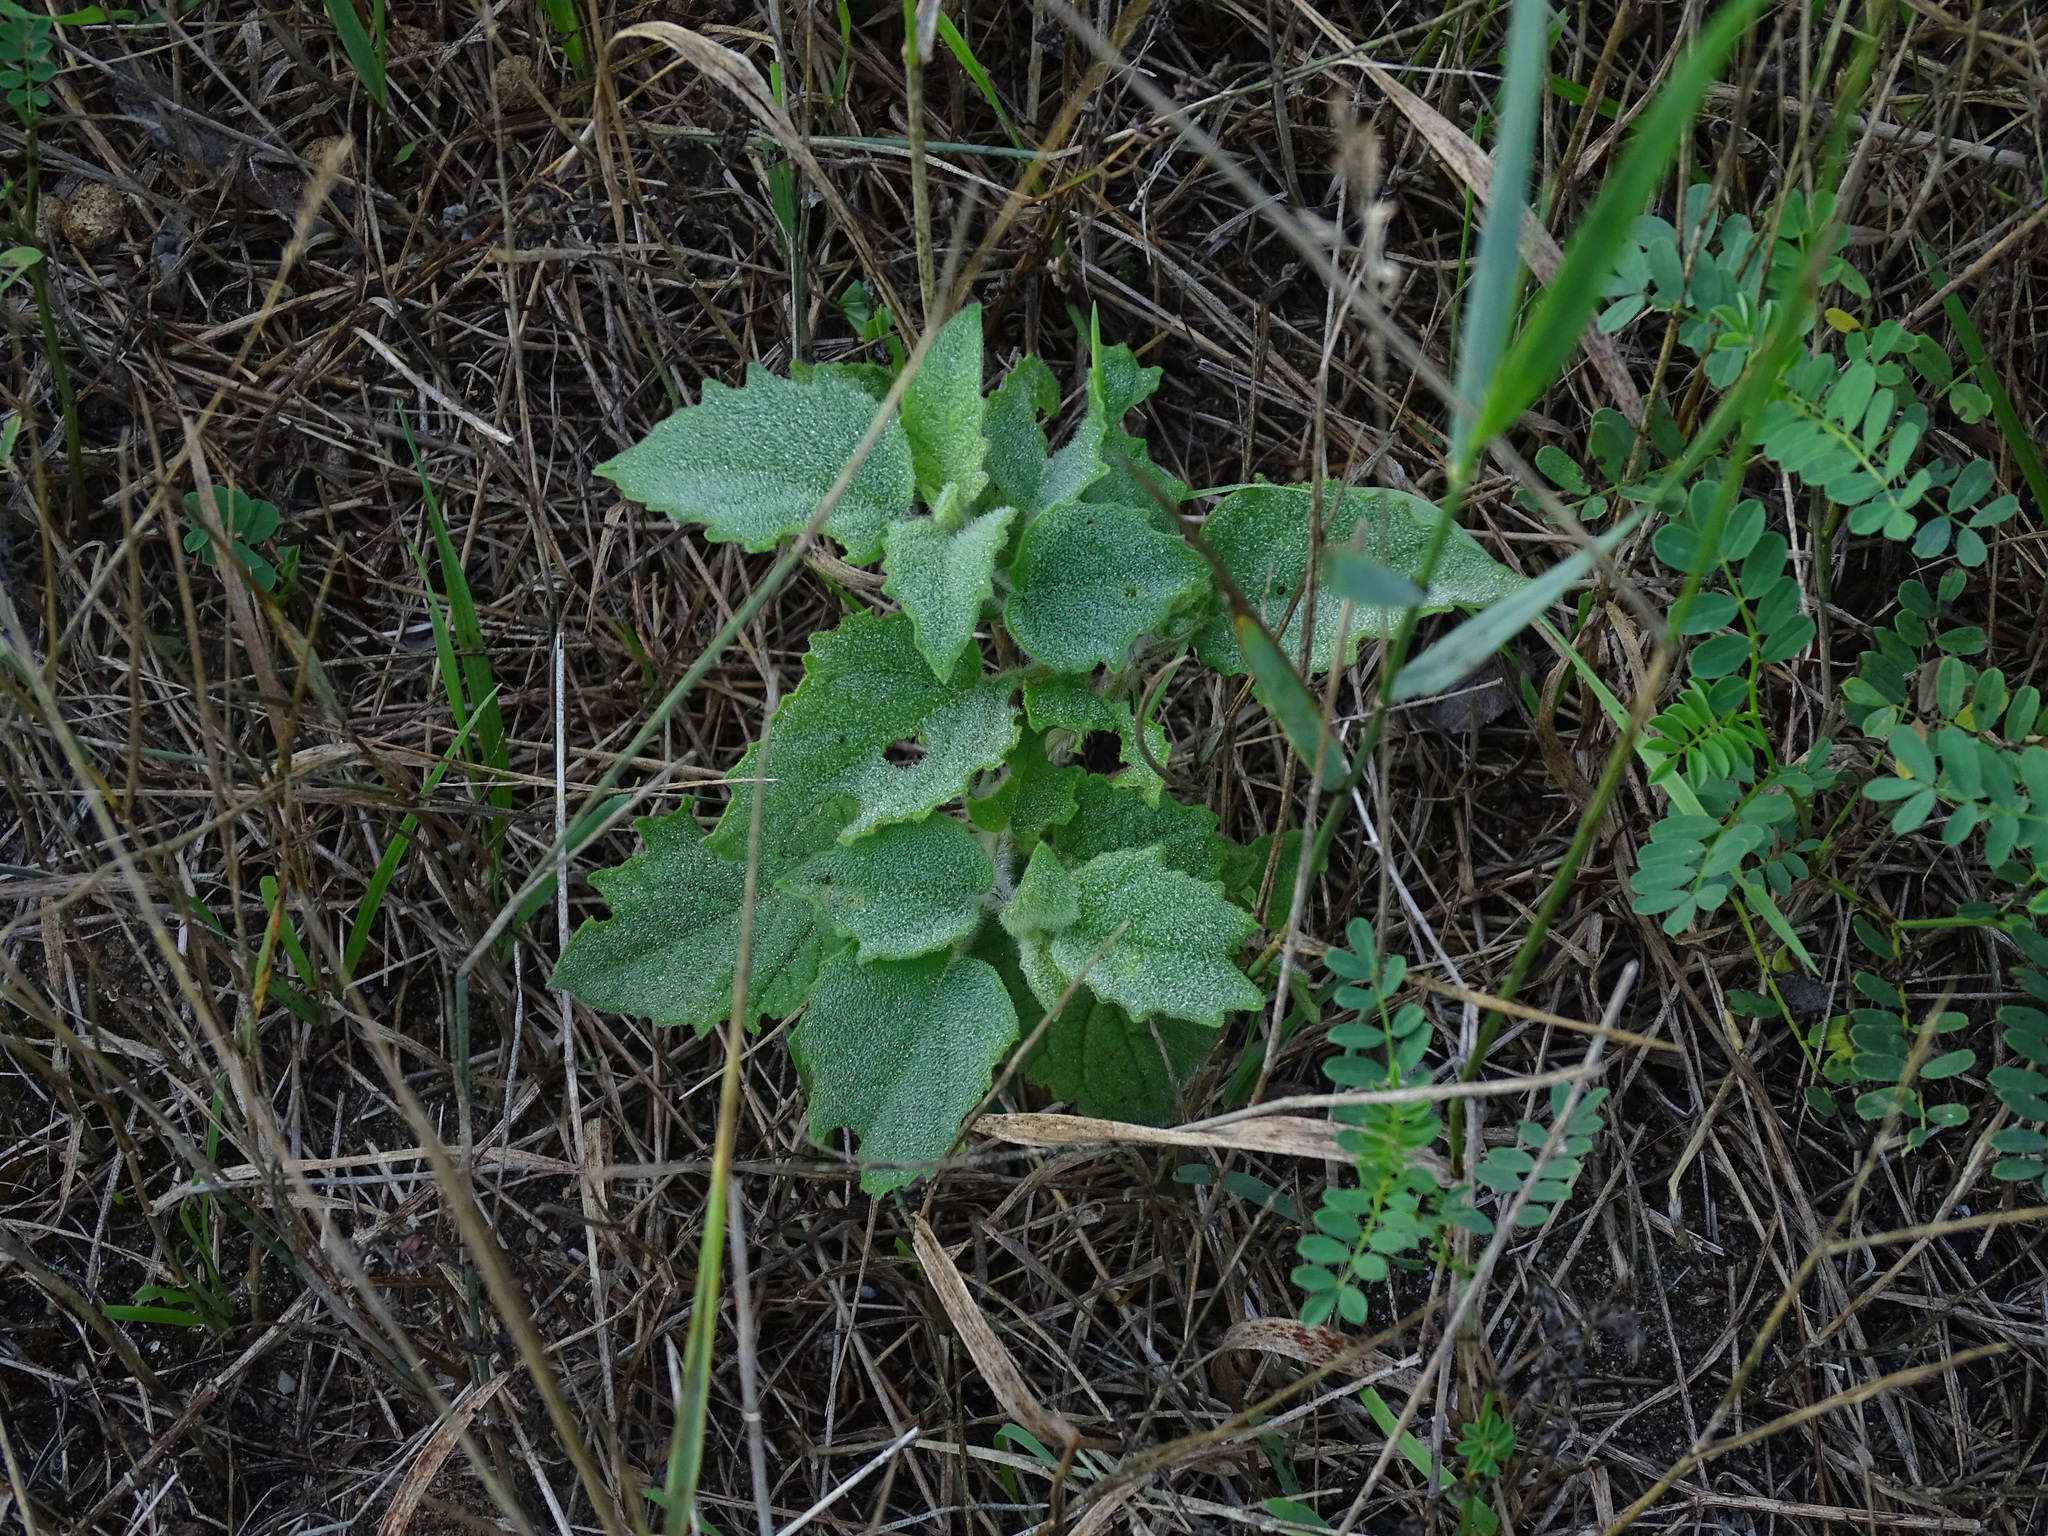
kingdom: Plantae
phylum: Tracheophyta
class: Magnoliopsida
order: Solanales
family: Solanaceae
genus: Physalis
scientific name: Physalis heterophylla
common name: Clammy ground-cherry
